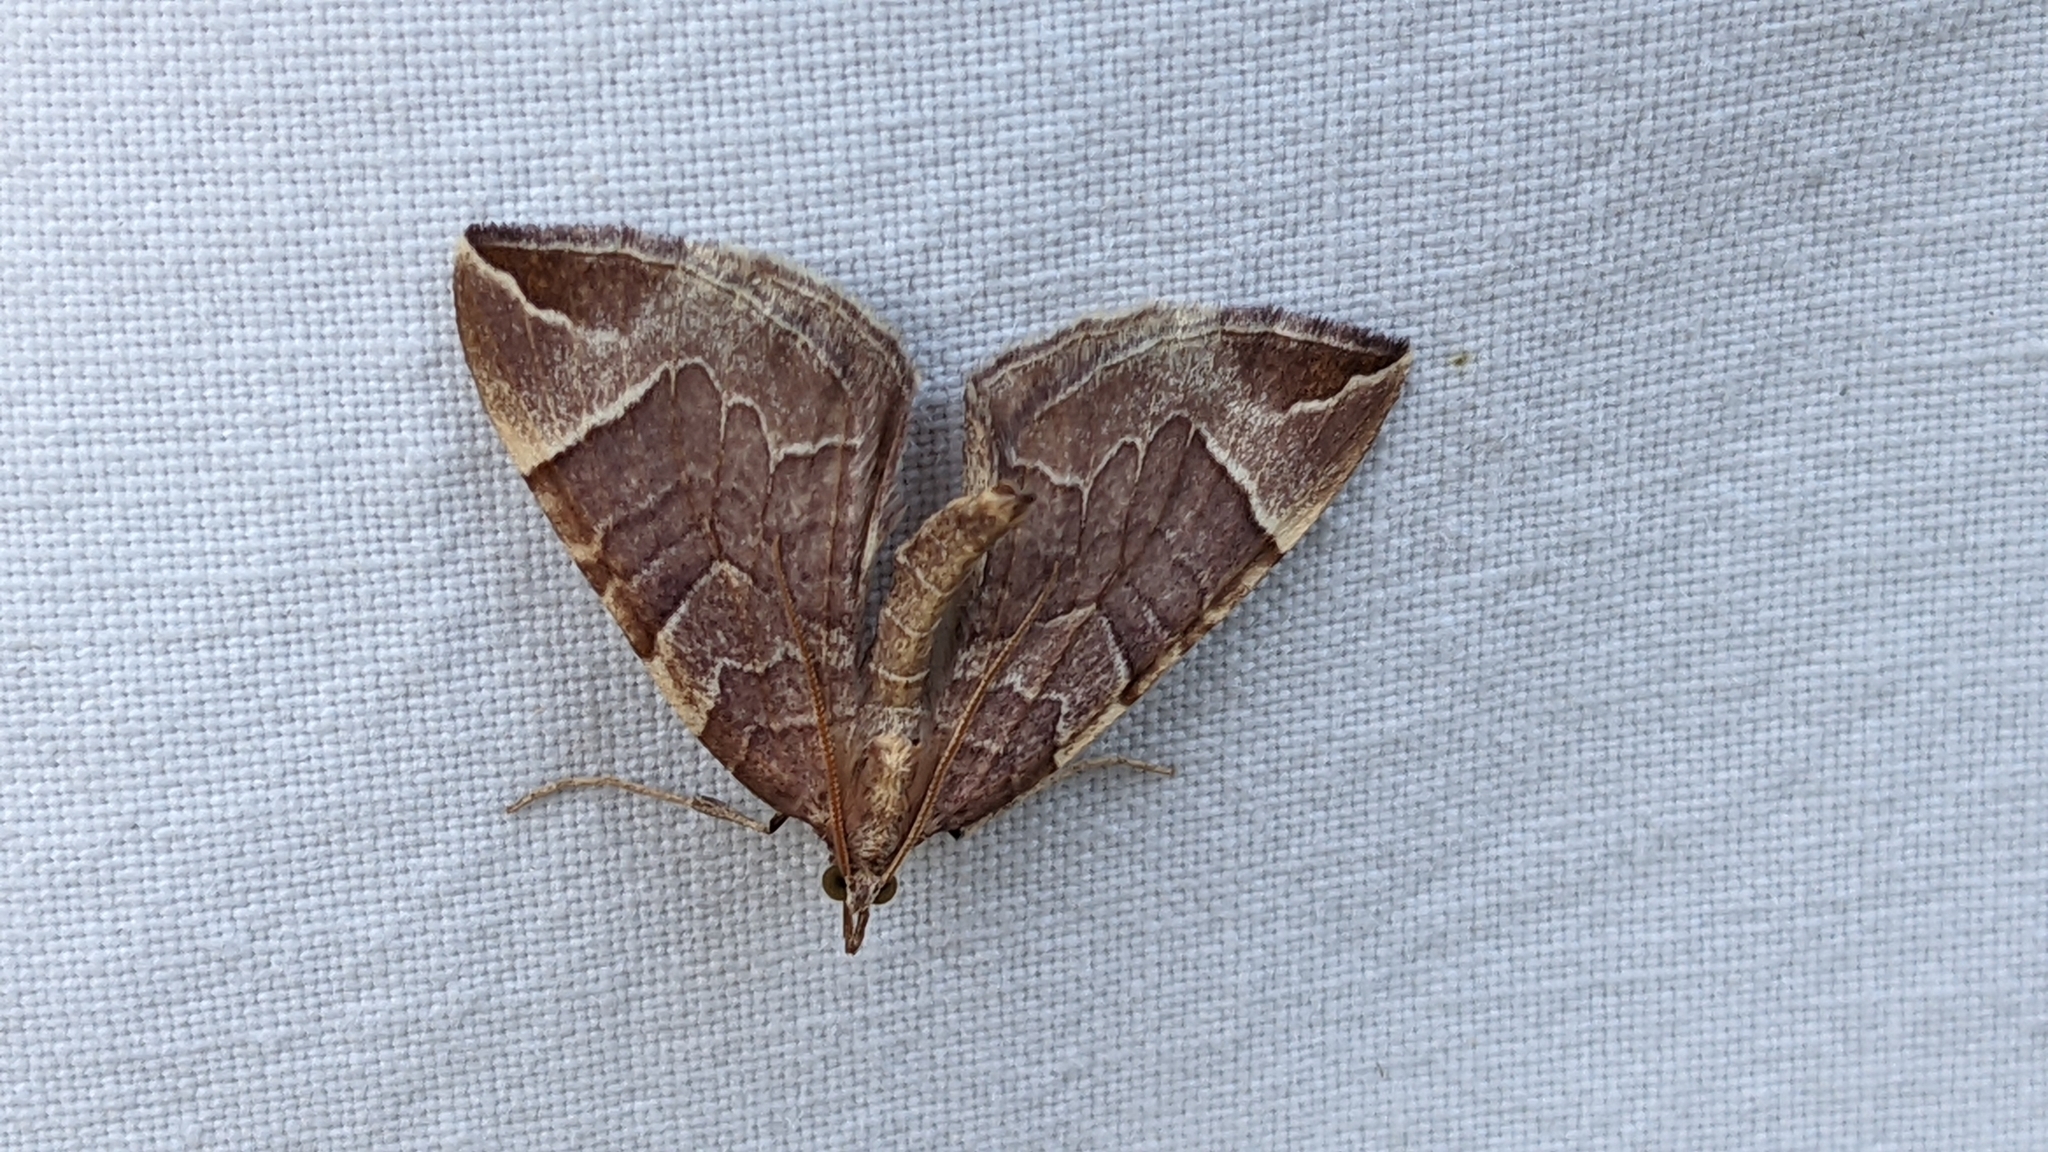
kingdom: Animalia
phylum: Arthropoda
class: Insecta
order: Lepidoptera
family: Geometridae
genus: Eulithis
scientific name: Eulithis testata
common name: Chevron
